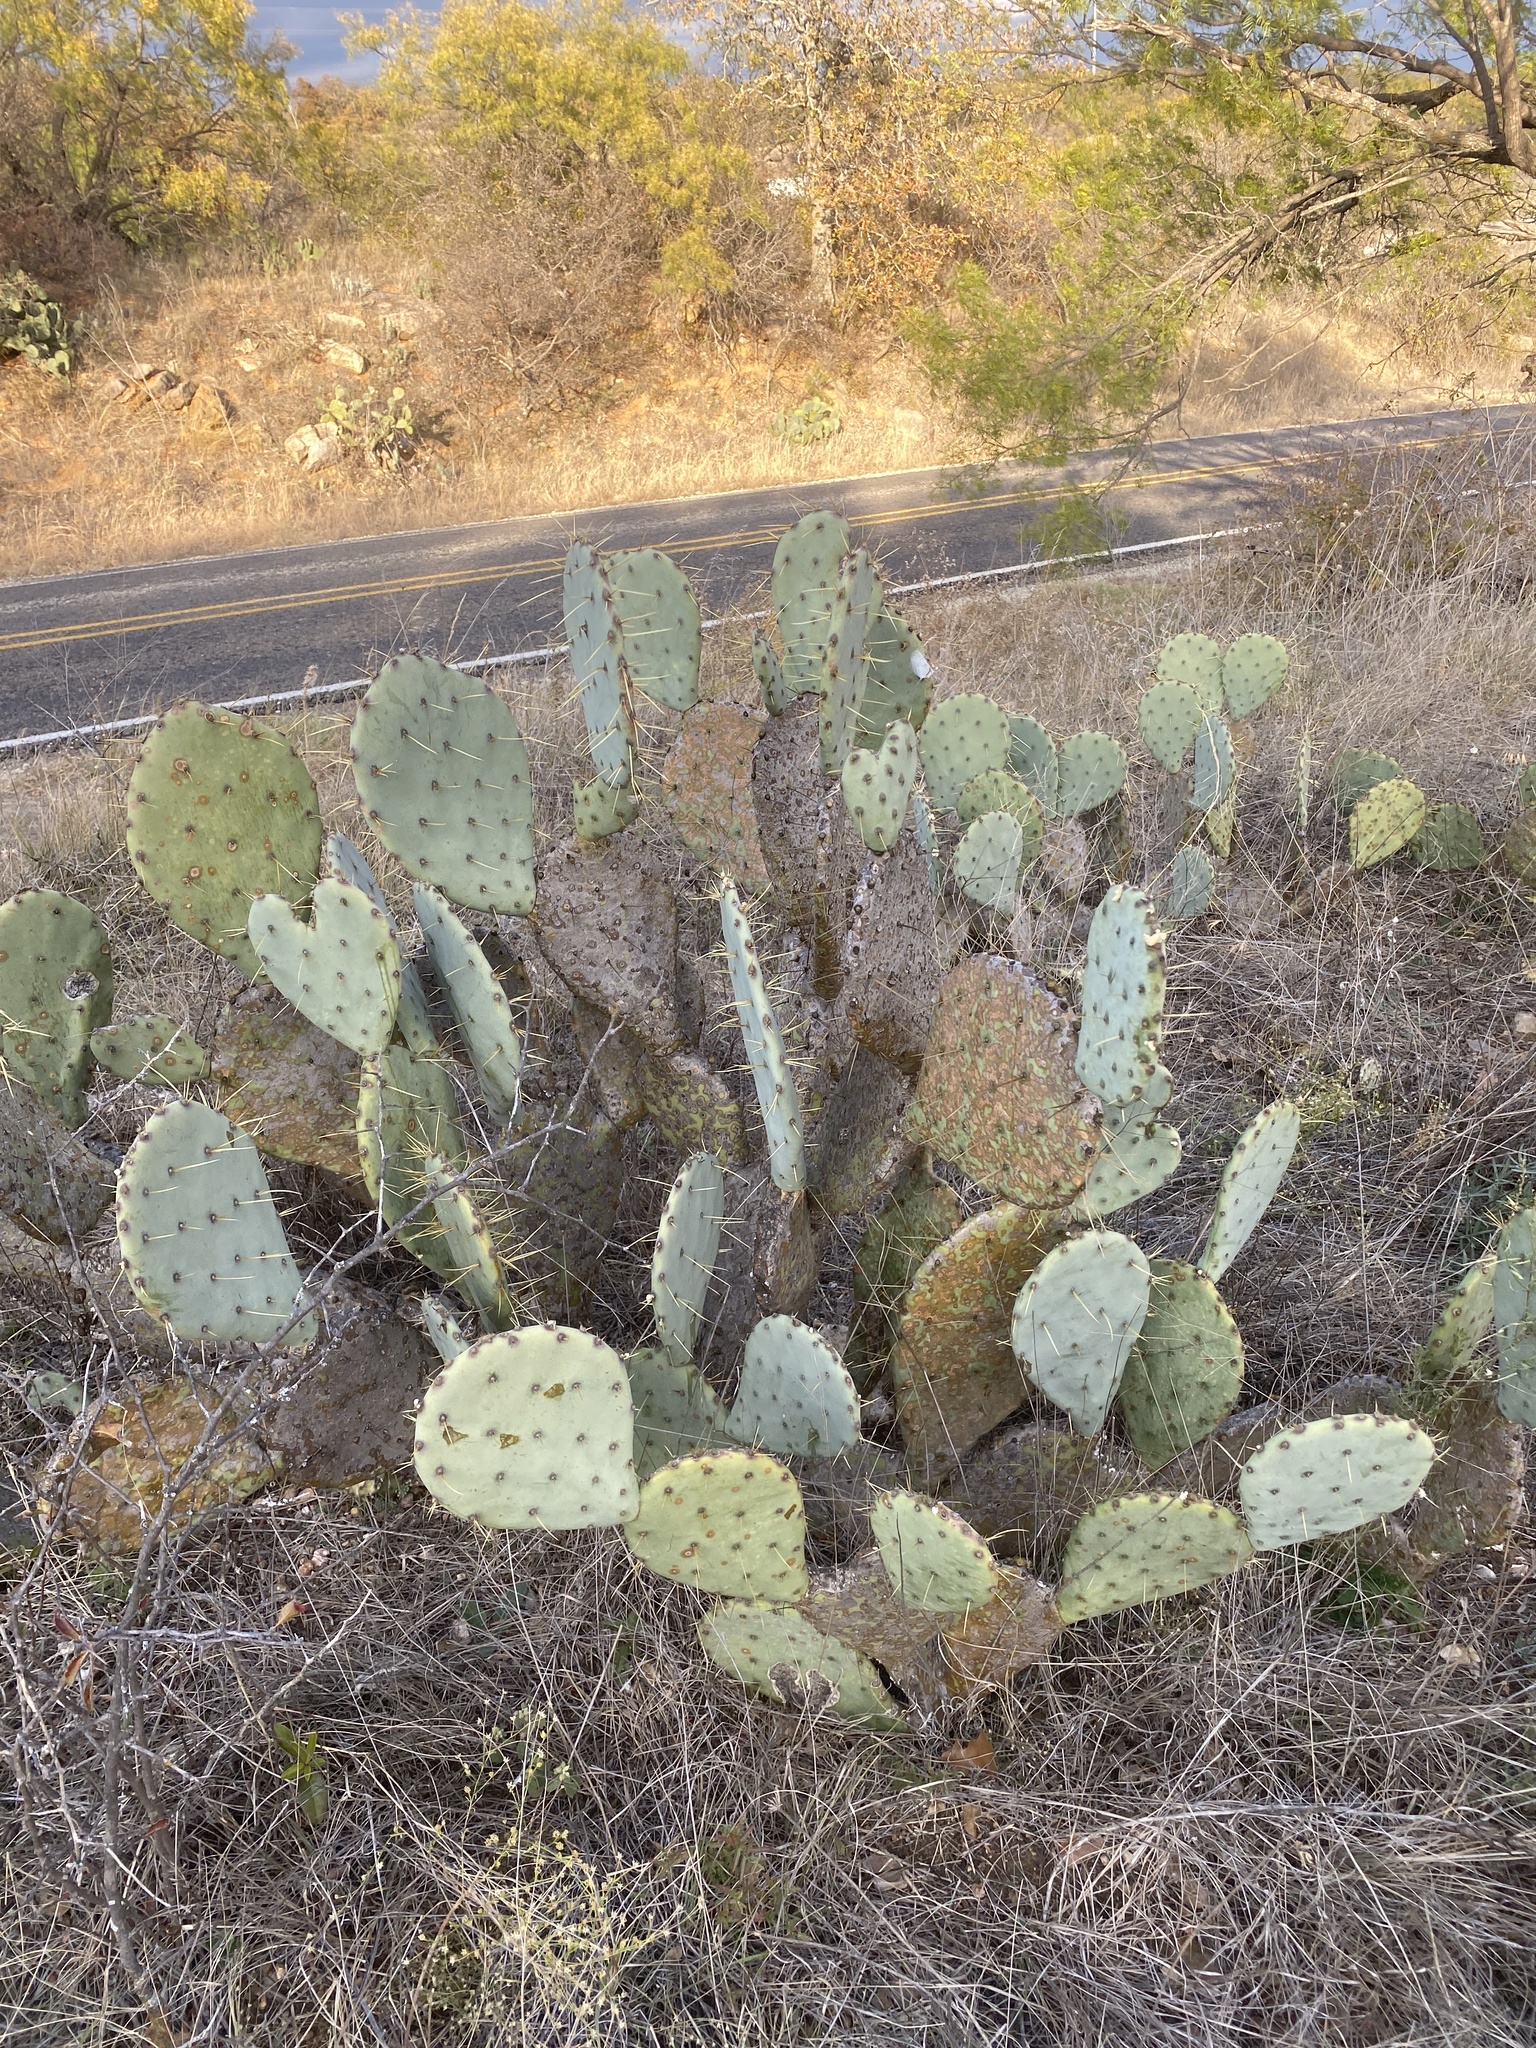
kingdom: Plantae
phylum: Tracheophyta
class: Magnoliopsida
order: Caryophyllales
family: Cactaceae
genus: Opuntia
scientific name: Opuntia engelmannii
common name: Cactus-apple
